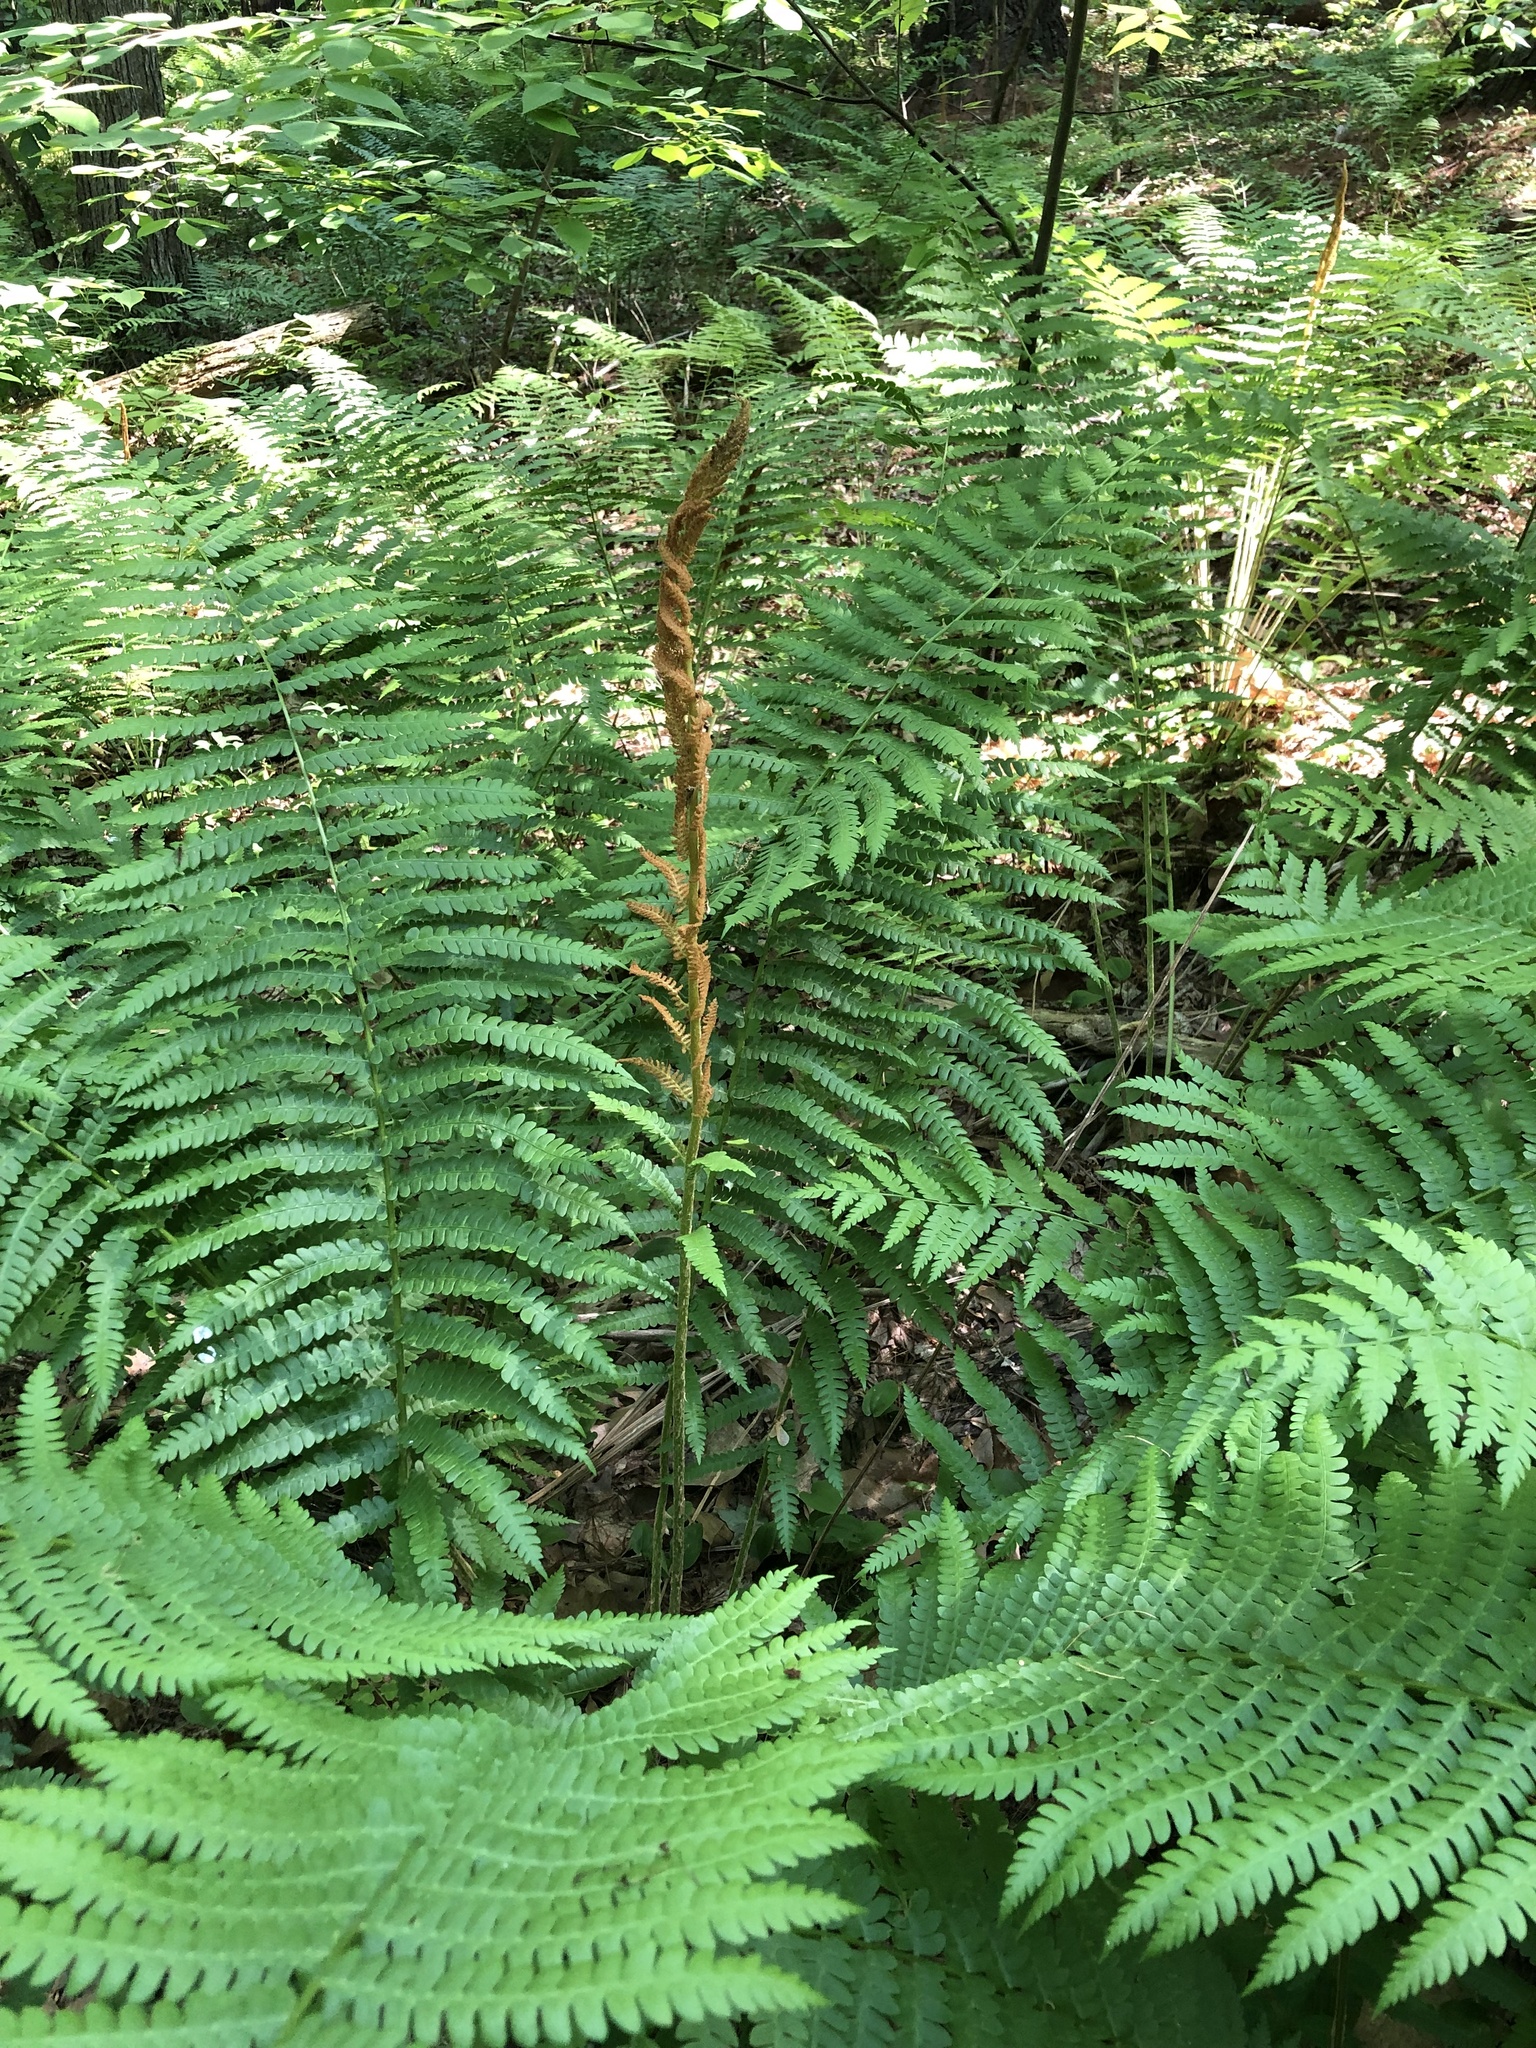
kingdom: Plantae
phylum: Tracheophyta
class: Polypodiopsida
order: Osmundales
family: Osmundaceae
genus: Osmundastrum
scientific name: Osmundastrum cinnamomeum
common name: Cinnamon fern
